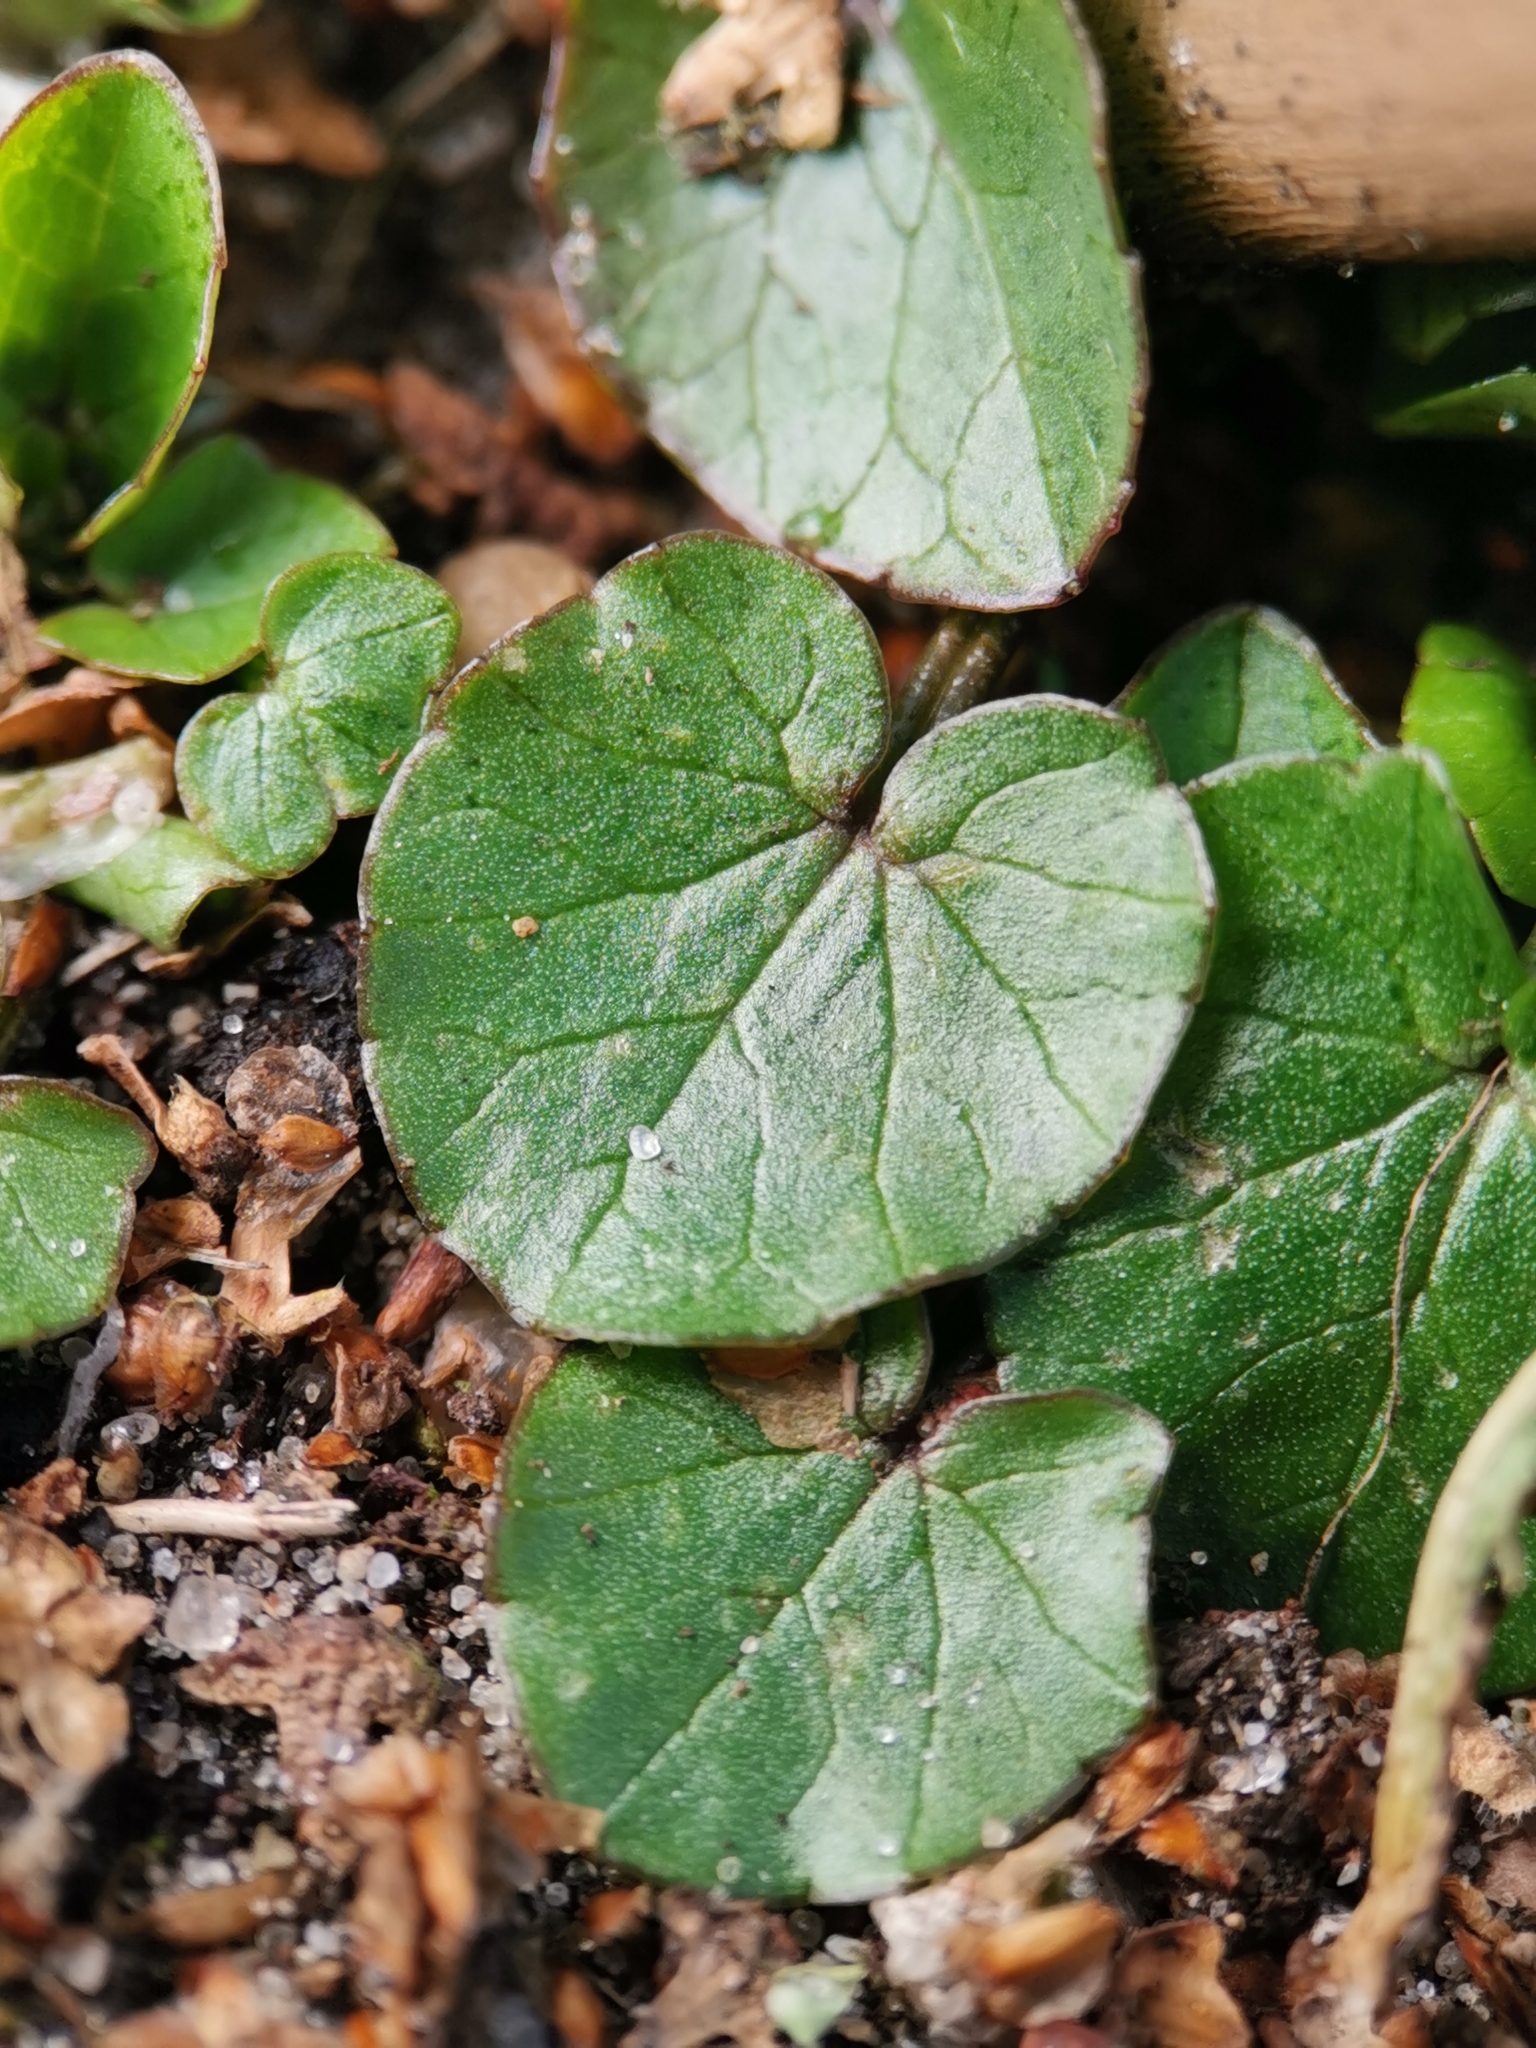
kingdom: Plantae
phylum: Tracheophyta
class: Magnoliopsida
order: Ranunculales
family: Ranunculaceae
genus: Ficaria
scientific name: Ficaria verna
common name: Lesser celandine
